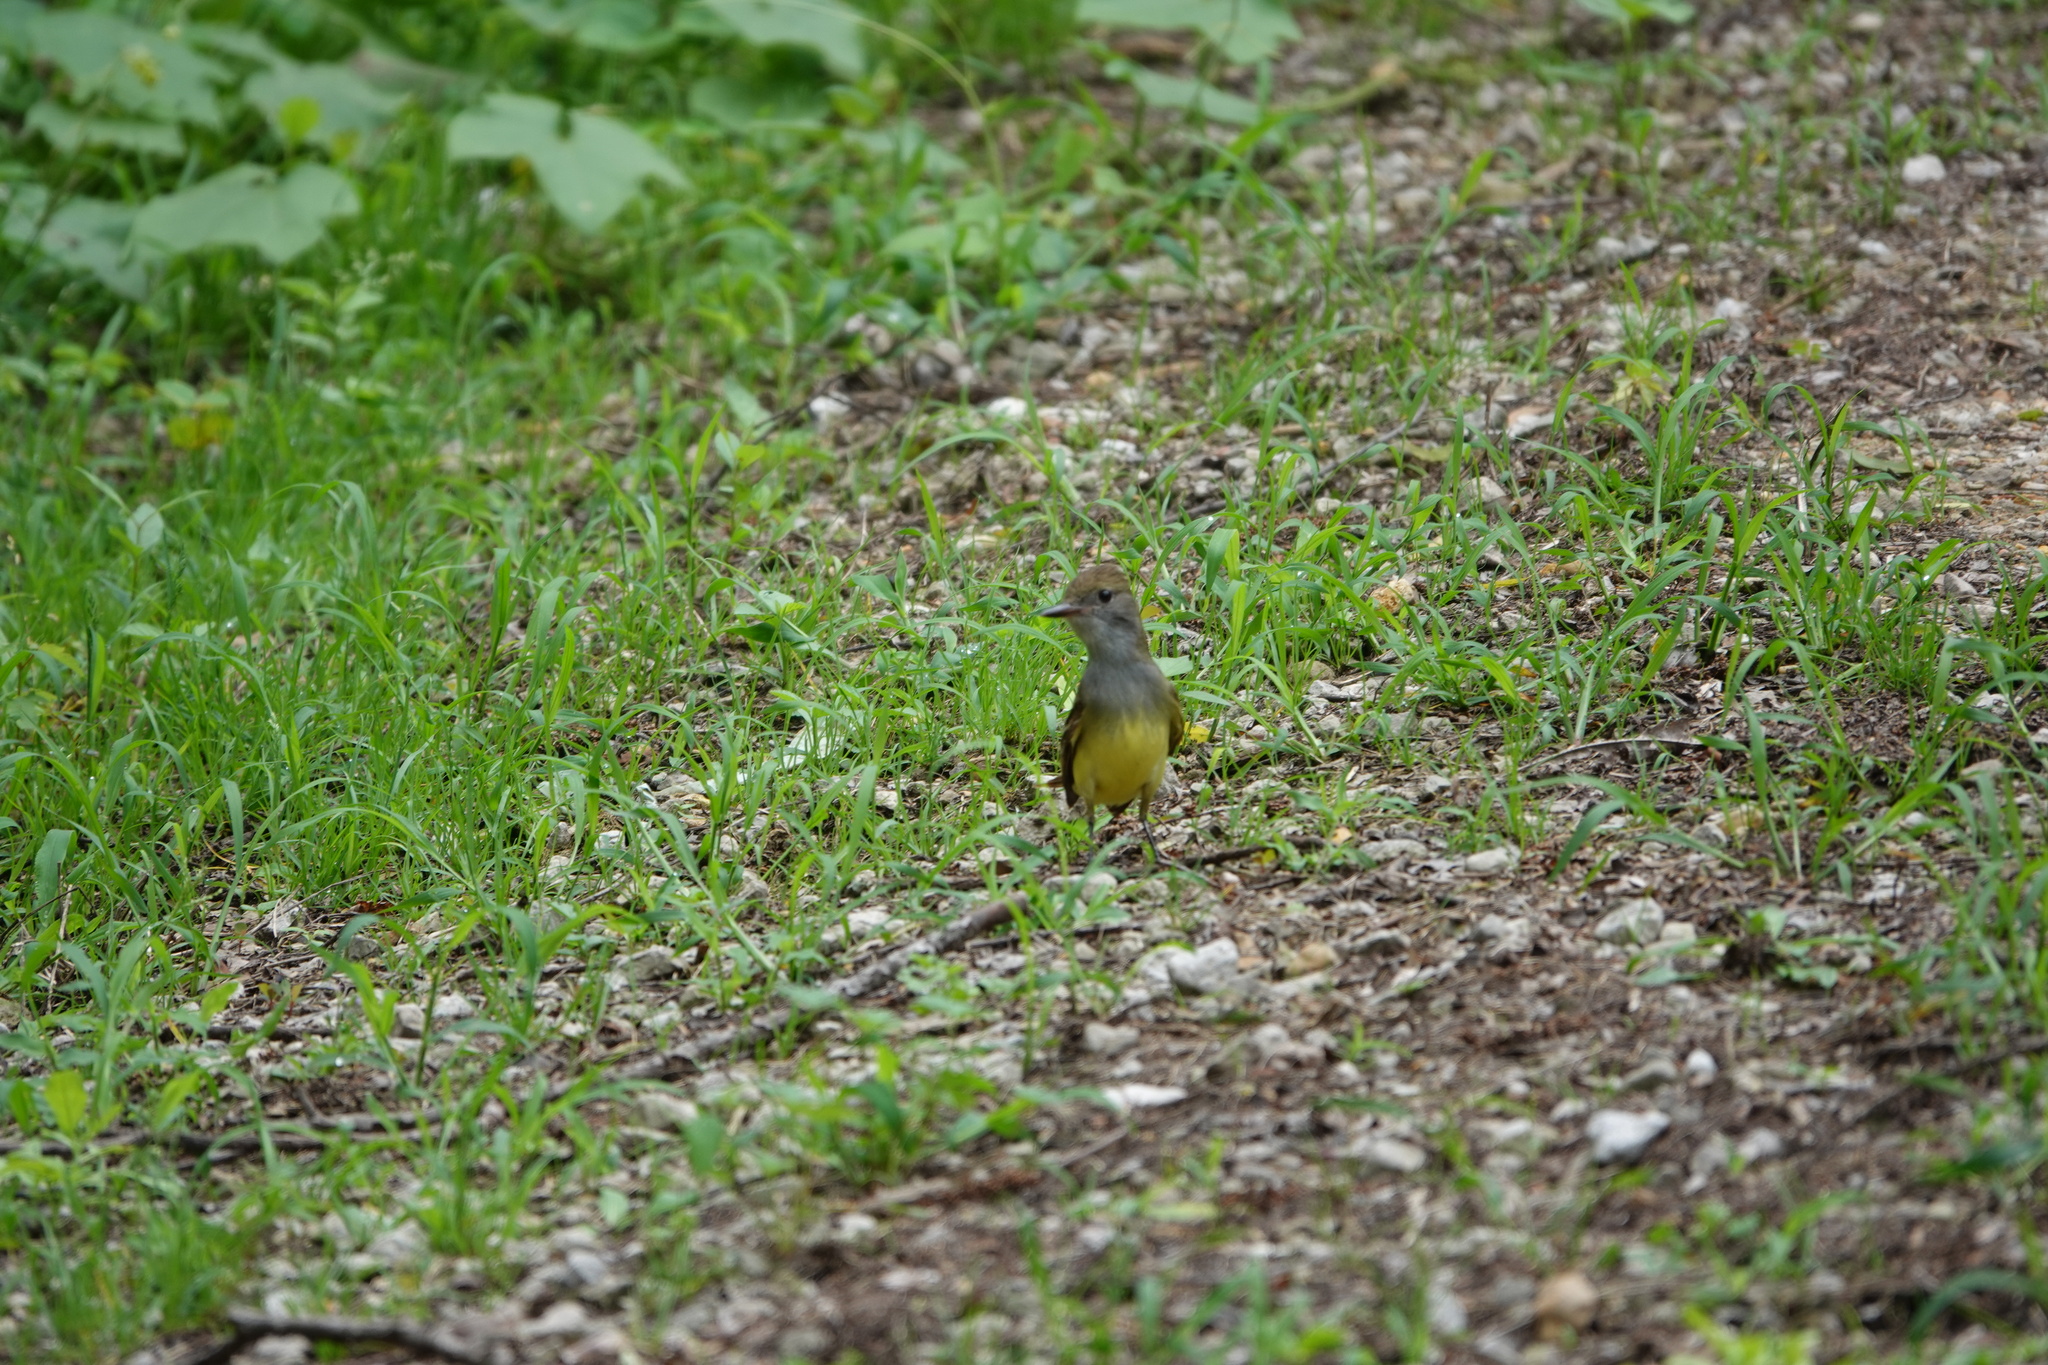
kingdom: Animalia
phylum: Chordata
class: Aves
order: Passeriformes
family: Tyrannidae
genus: Myiarchus
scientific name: Myiarchus crinitus
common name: Great crested flycatcher
